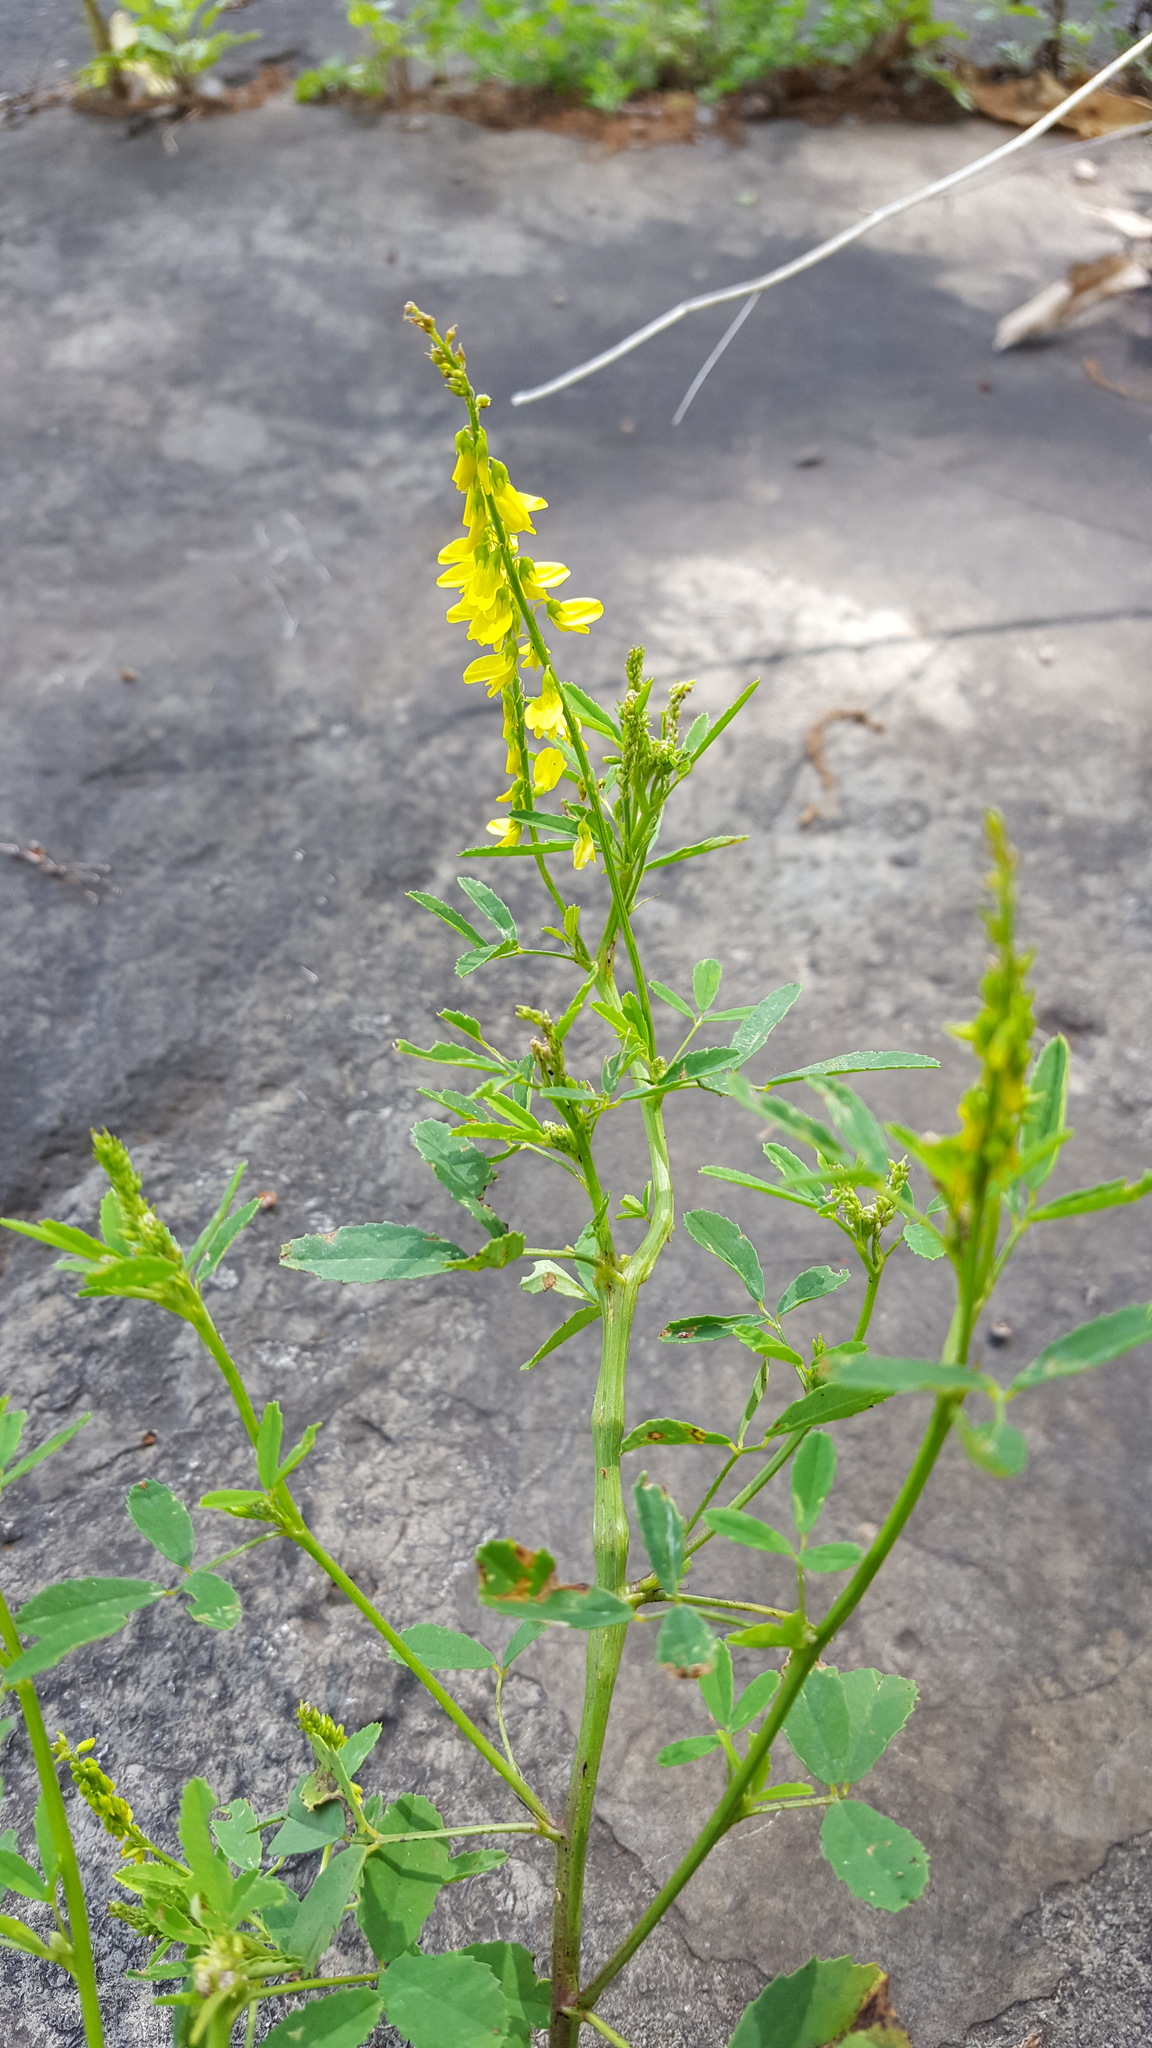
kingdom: Plantae
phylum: Tracheophyta
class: Magnoliopsida
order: Fabales
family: Fabaceae
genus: Melilotus
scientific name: Melilotus officinalis
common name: Sweetclover
